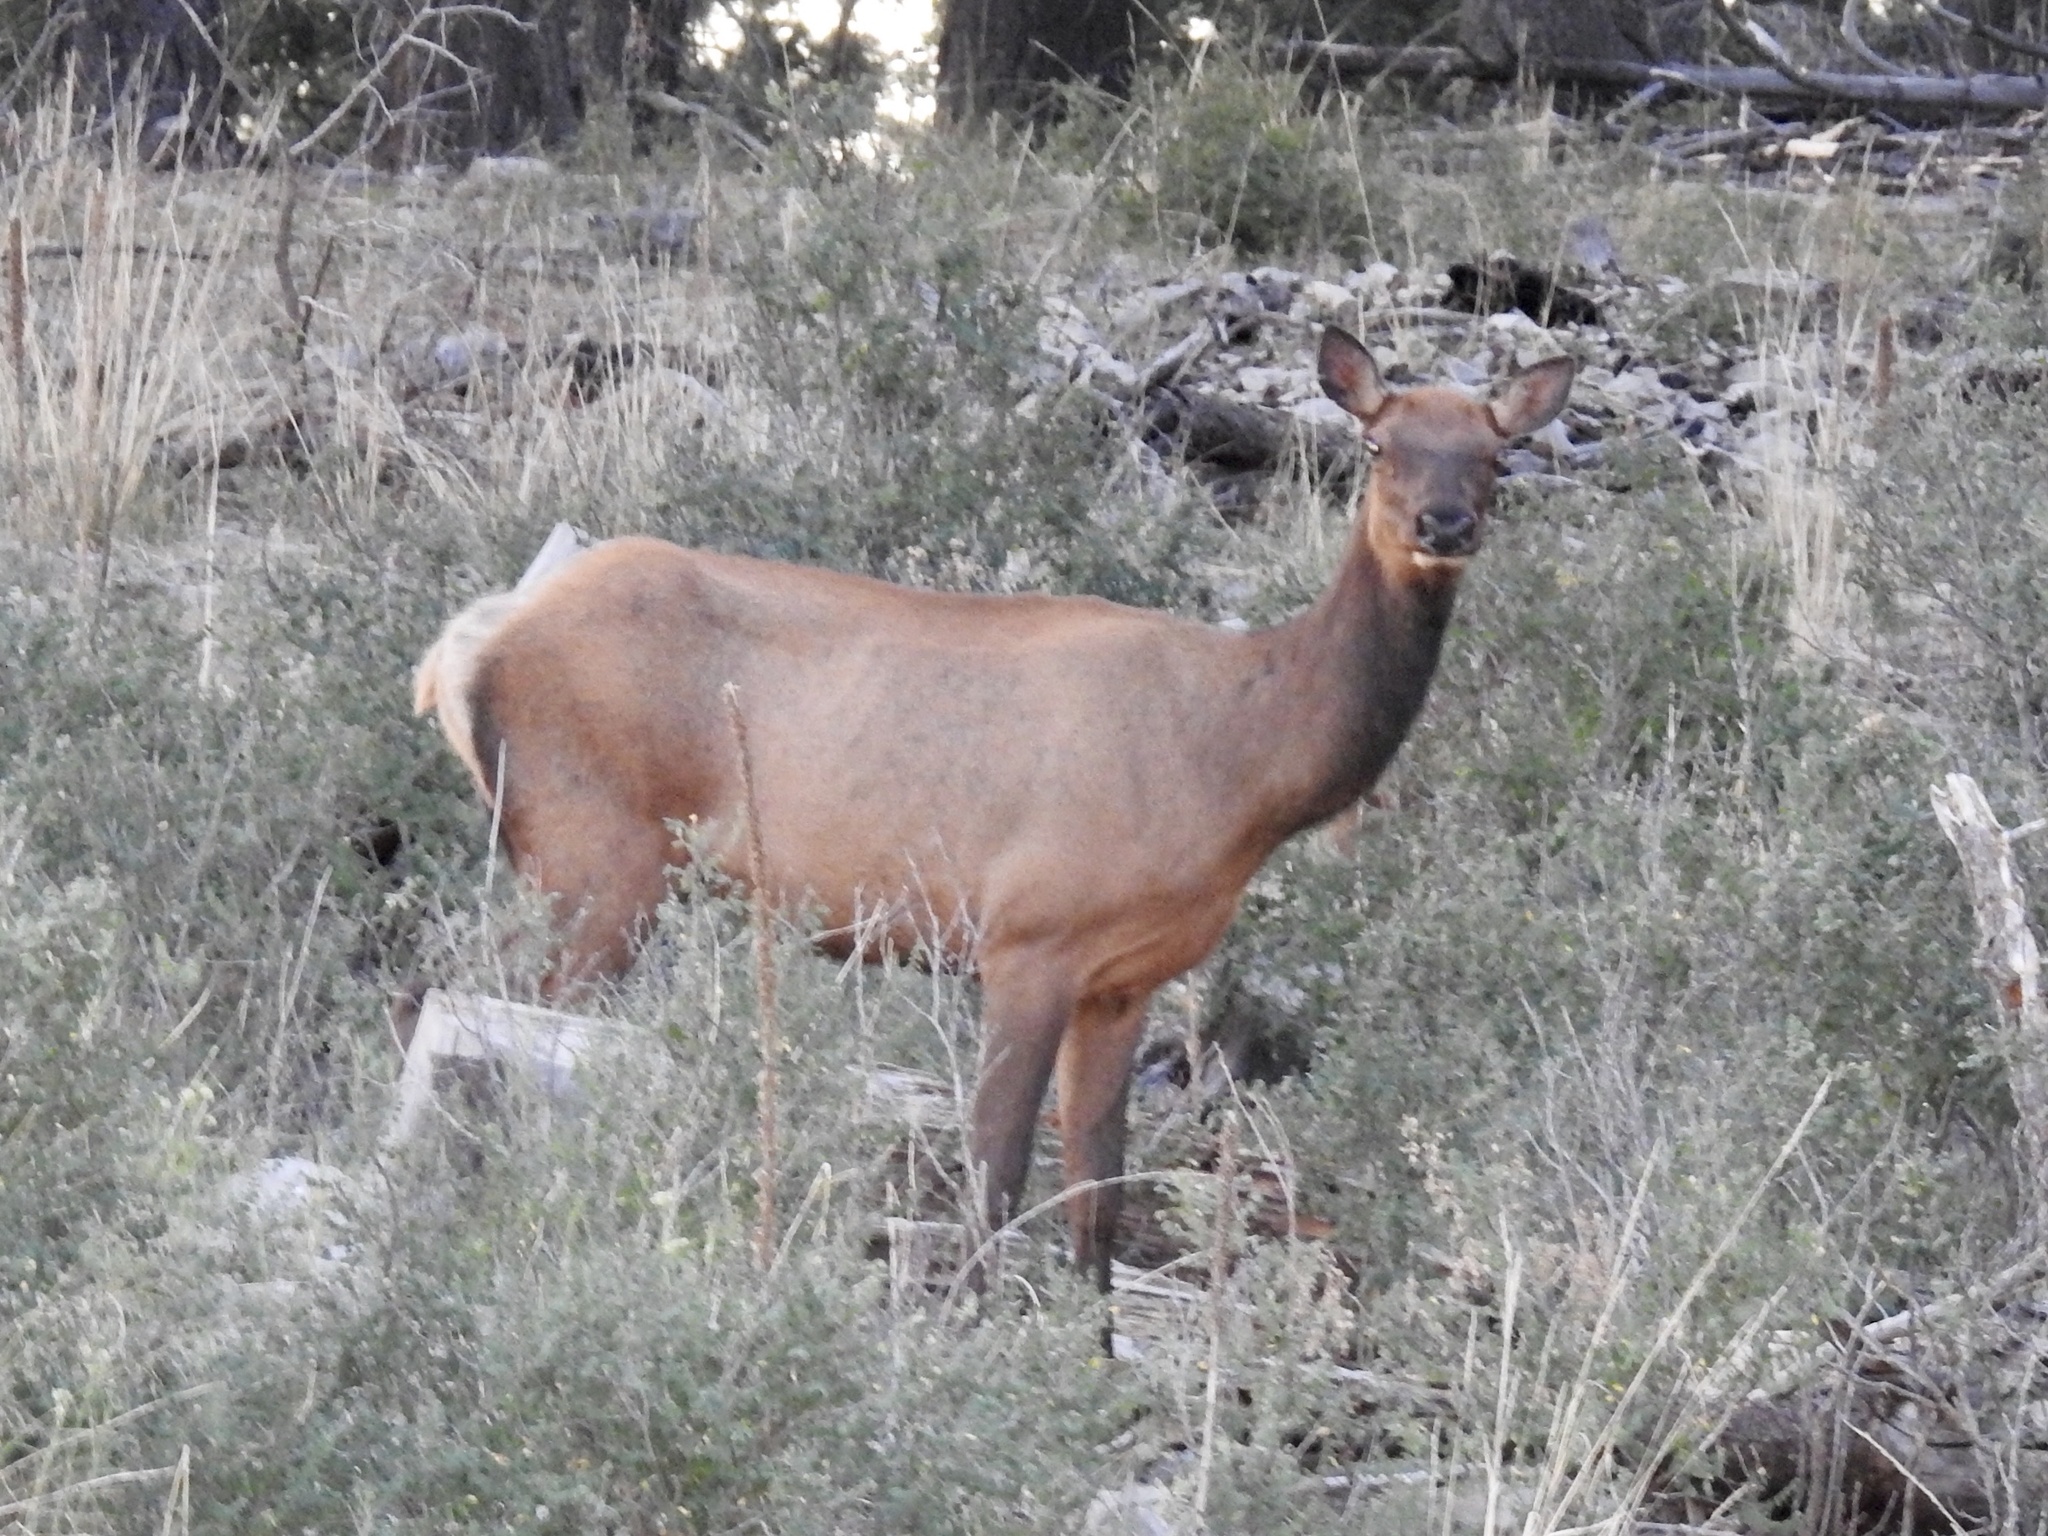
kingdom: Animalia
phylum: Chordata
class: Mammalia
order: Artiodactyla
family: Cervidae
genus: Cervus
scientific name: Cervus elaphus
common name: Red deer
